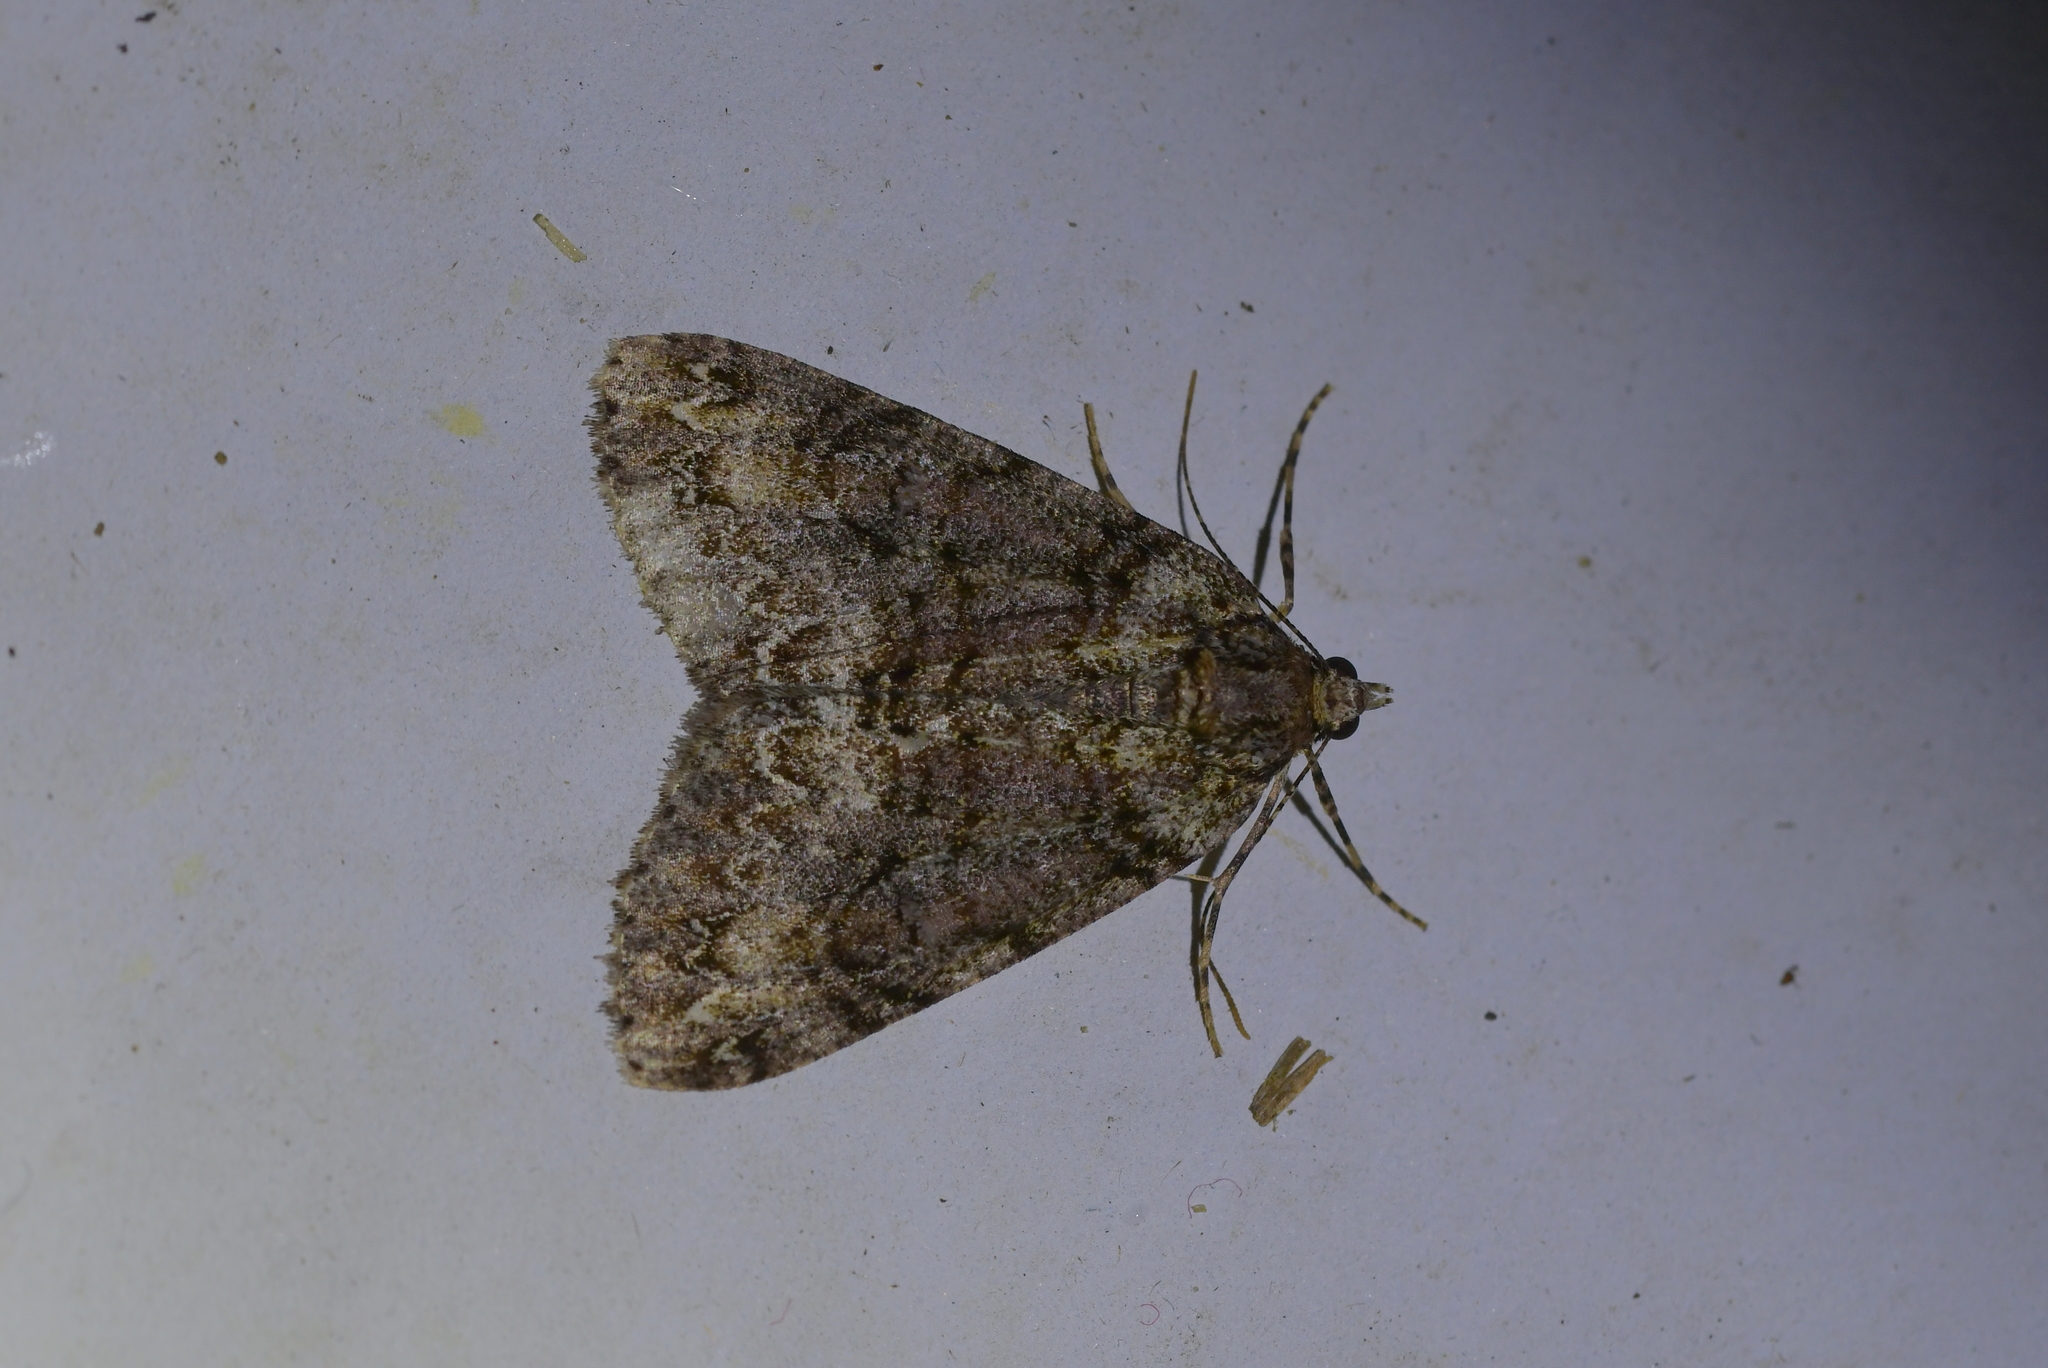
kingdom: Animalia
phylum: Arthropoda
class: Insecta
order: Lepidoptera
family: Geometridae
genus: Pseudocoremia
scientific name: Pseudocoremia suavis
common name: Common forest looper
